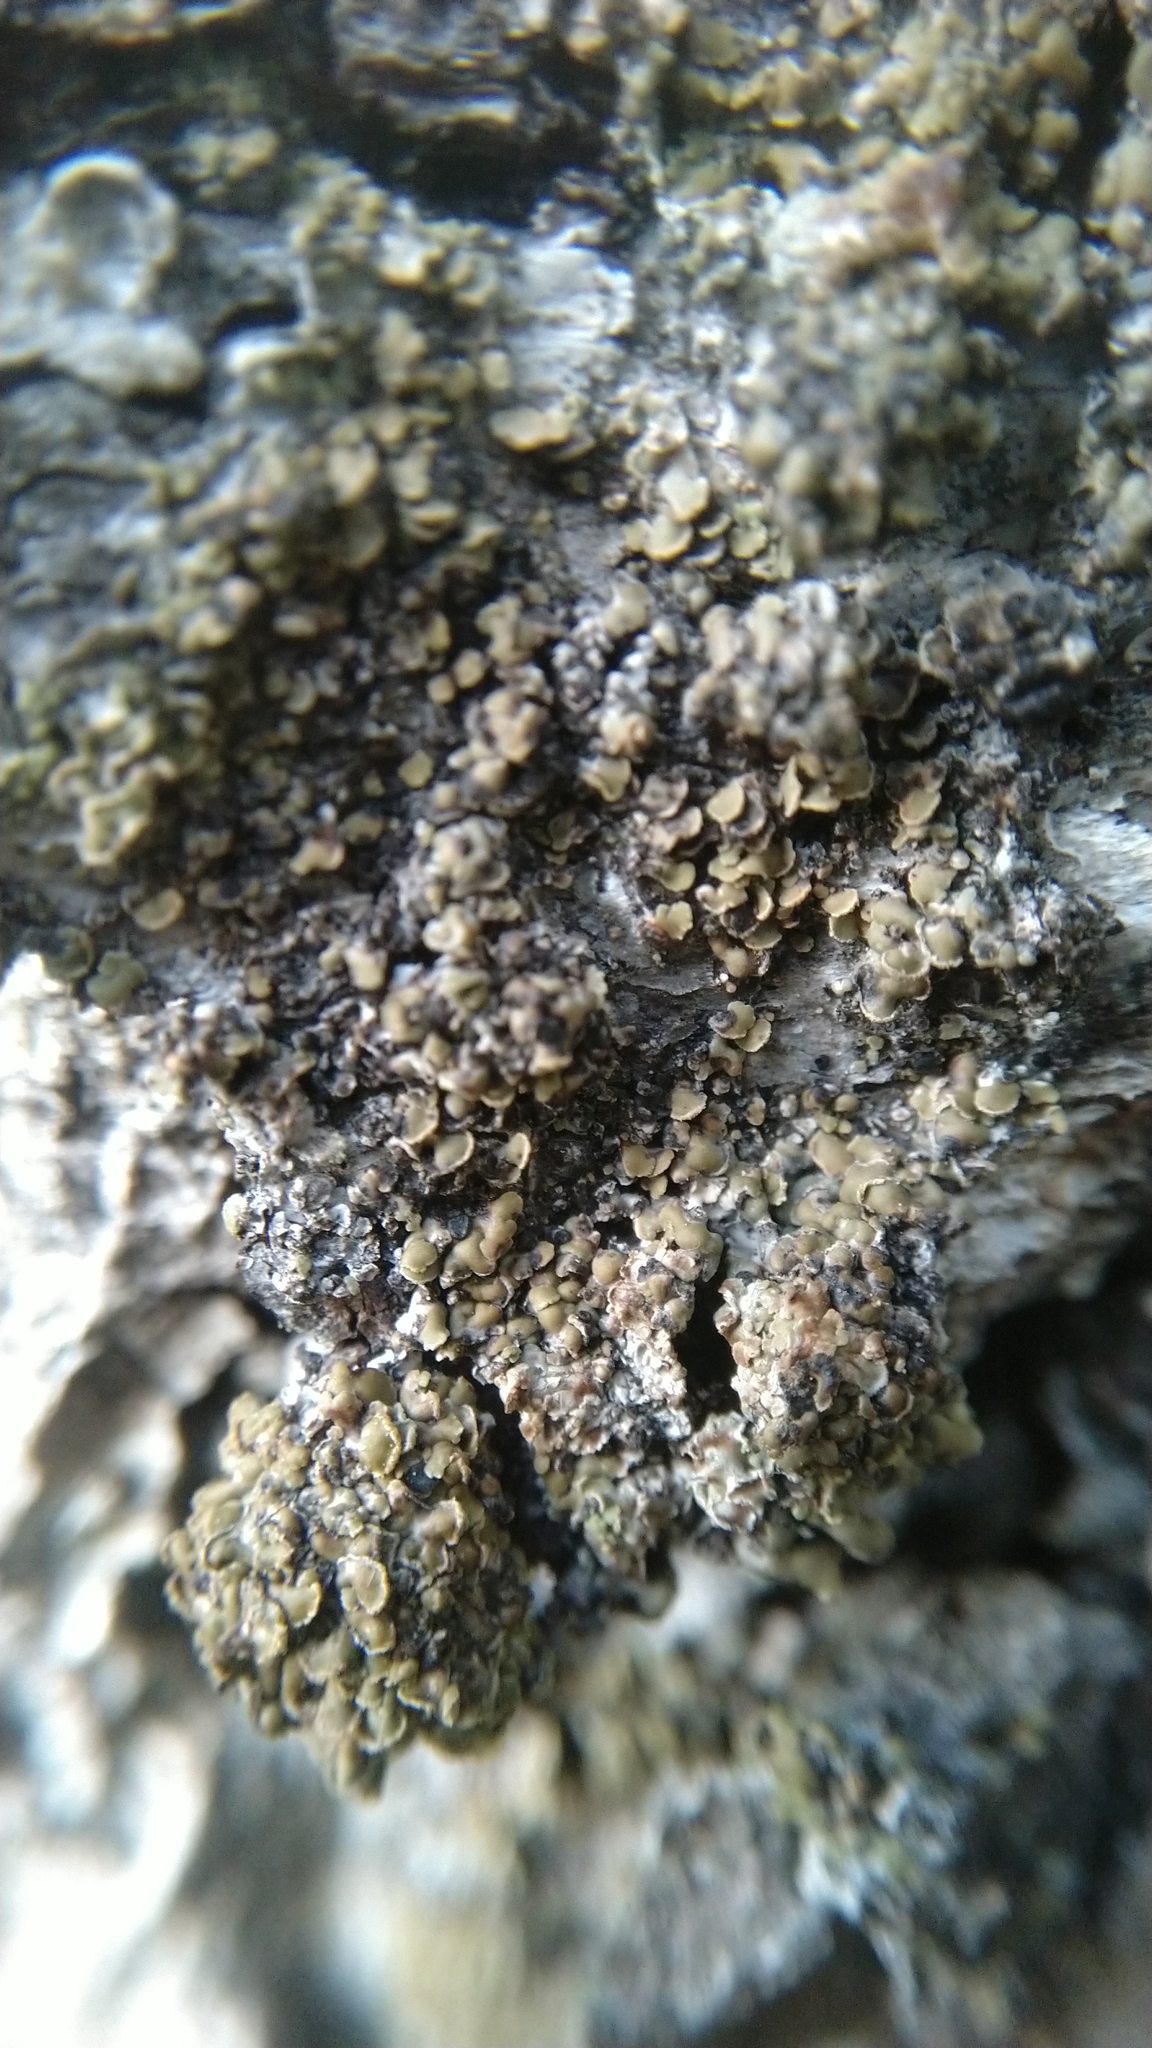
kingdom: Fungi
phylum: Ascomycota
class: Lecanoromycetes
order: Umbilicariales
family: Ophioparmaceae
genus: Hypocenomyce
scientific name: Hypocenomyce scalaris
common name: Common clam lichen
